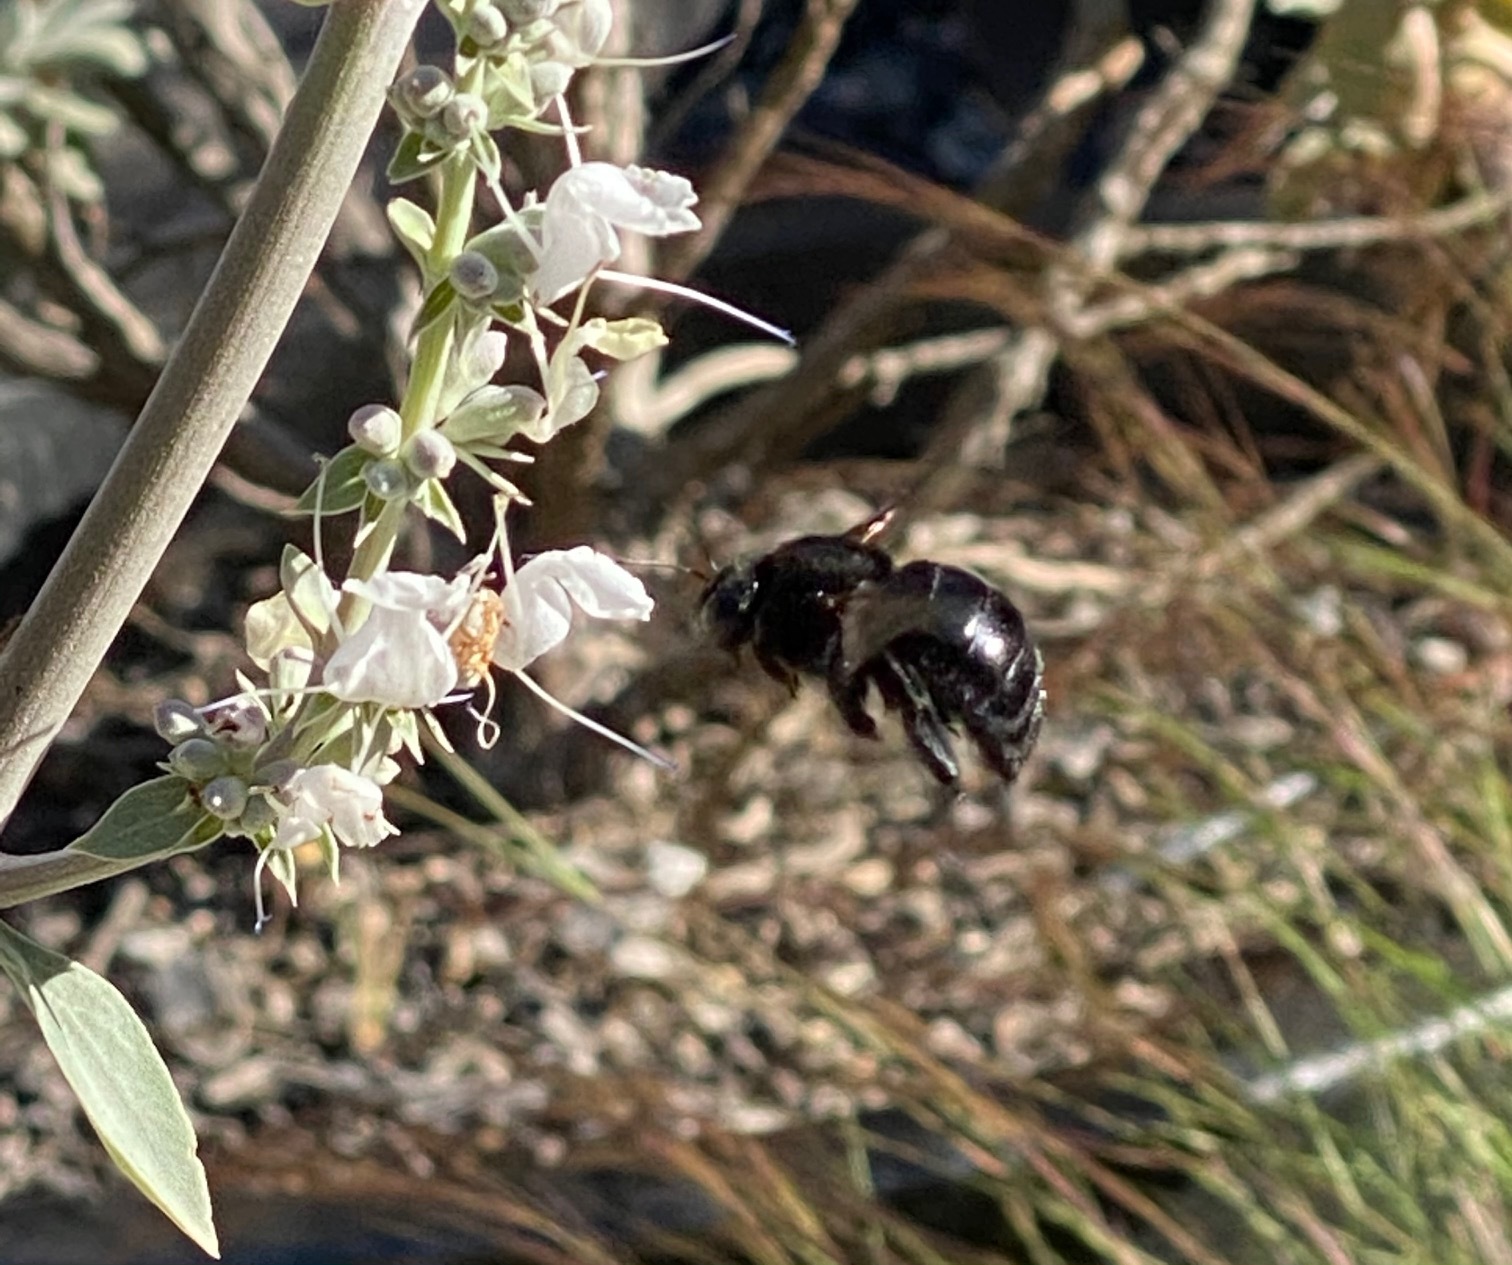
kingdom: Animalia
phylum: Arthropoda
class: Insecta
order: Hymenoptera
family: Apidae
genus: Xylocopa
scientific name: Xylocopa sonorina
